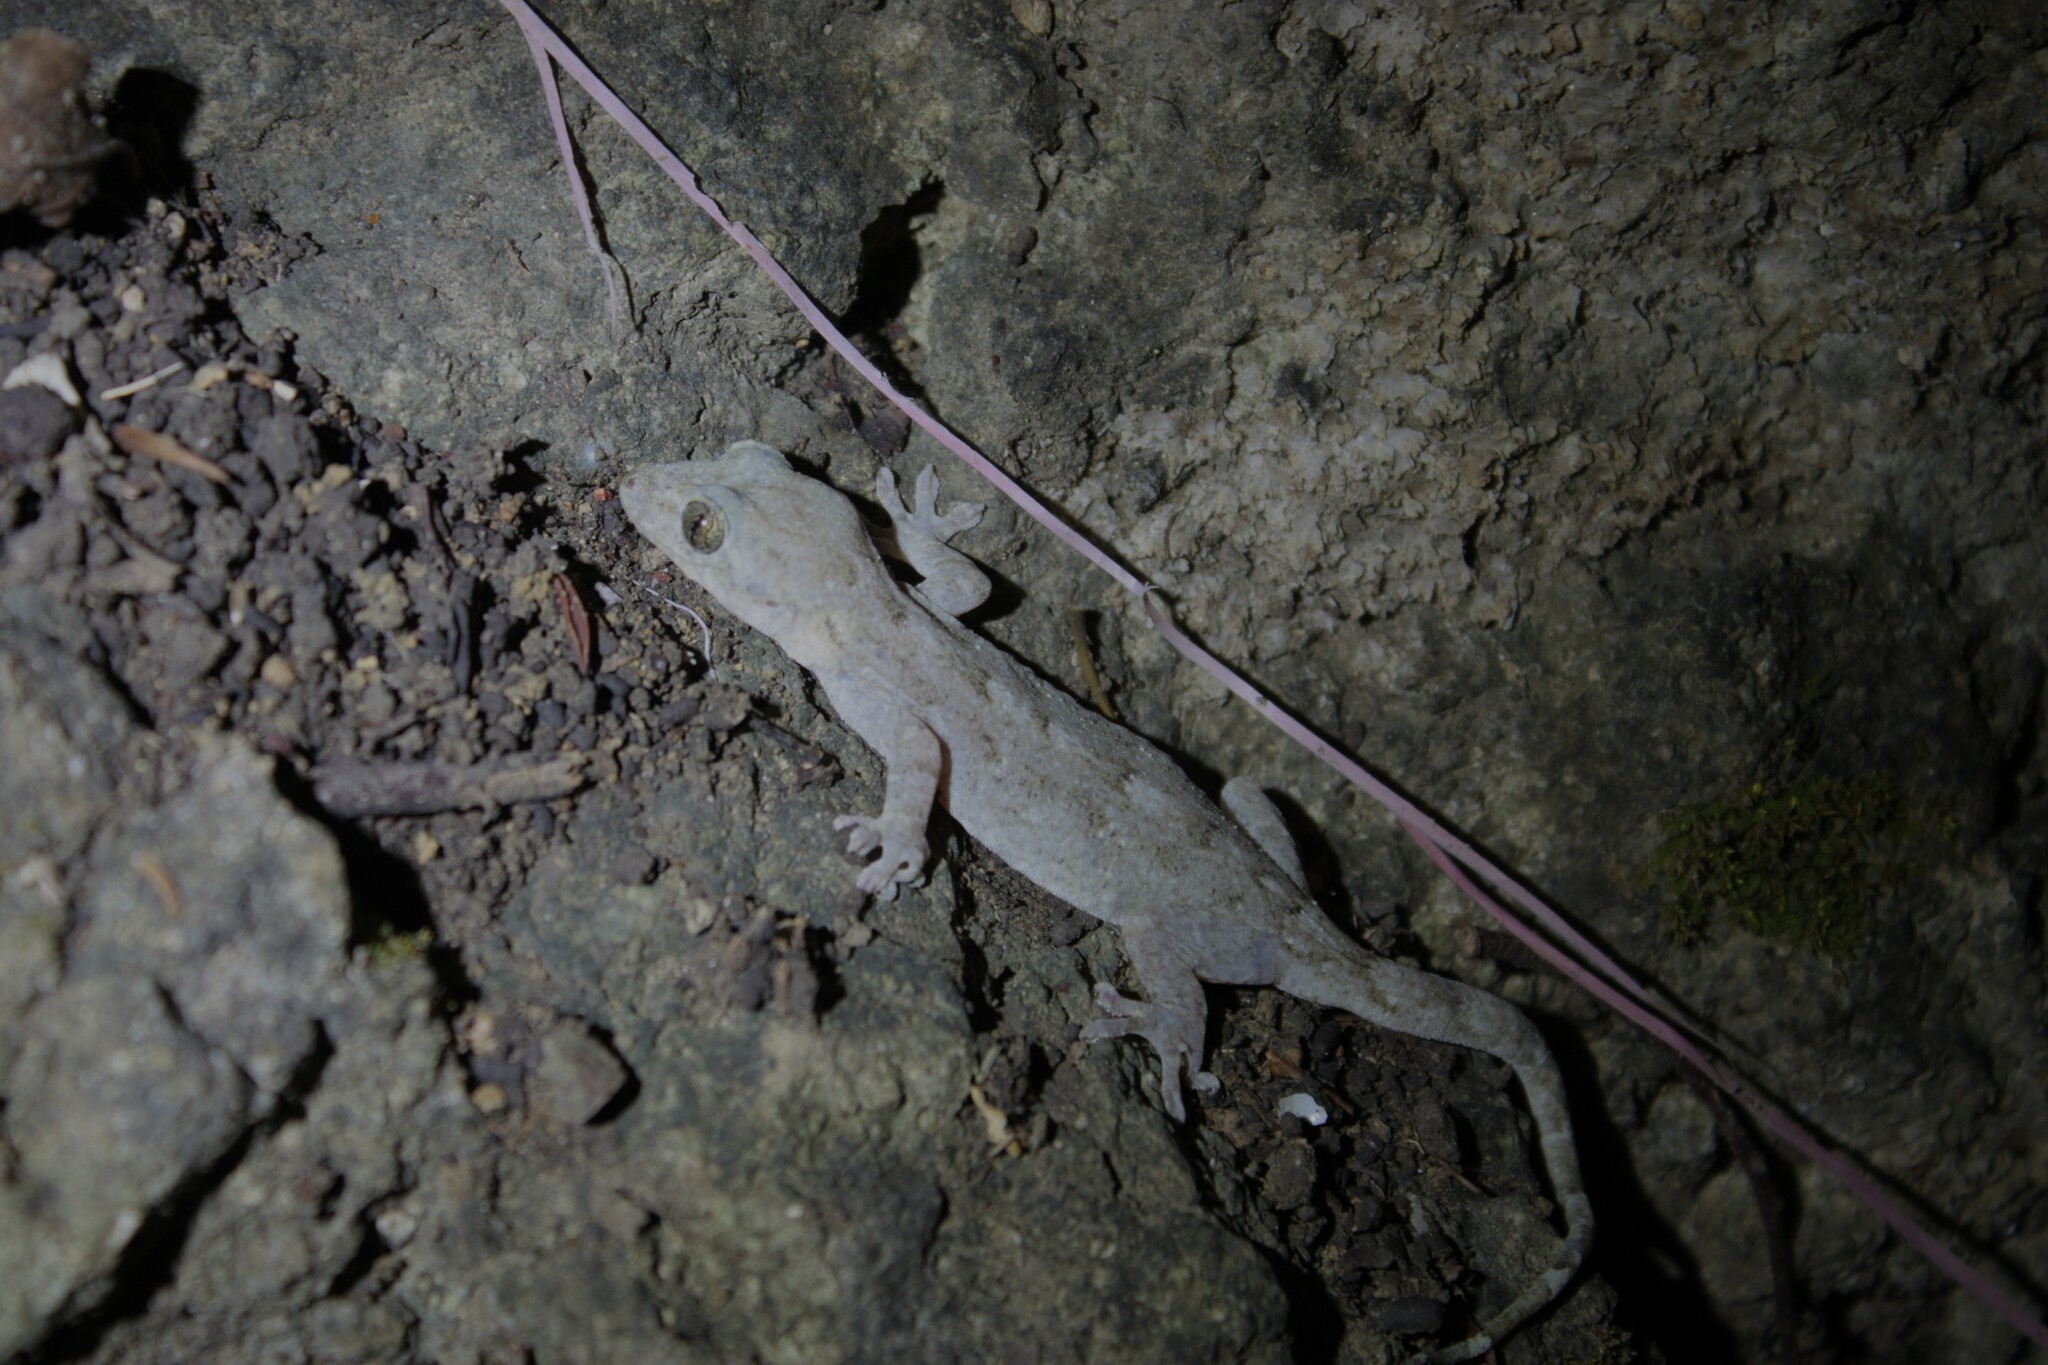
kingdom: Animalia
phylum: Chordata
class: Squamata
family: Gekkonidae
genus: Gekko
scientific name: Gekko hokouensis
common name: Kwangsi gecko
